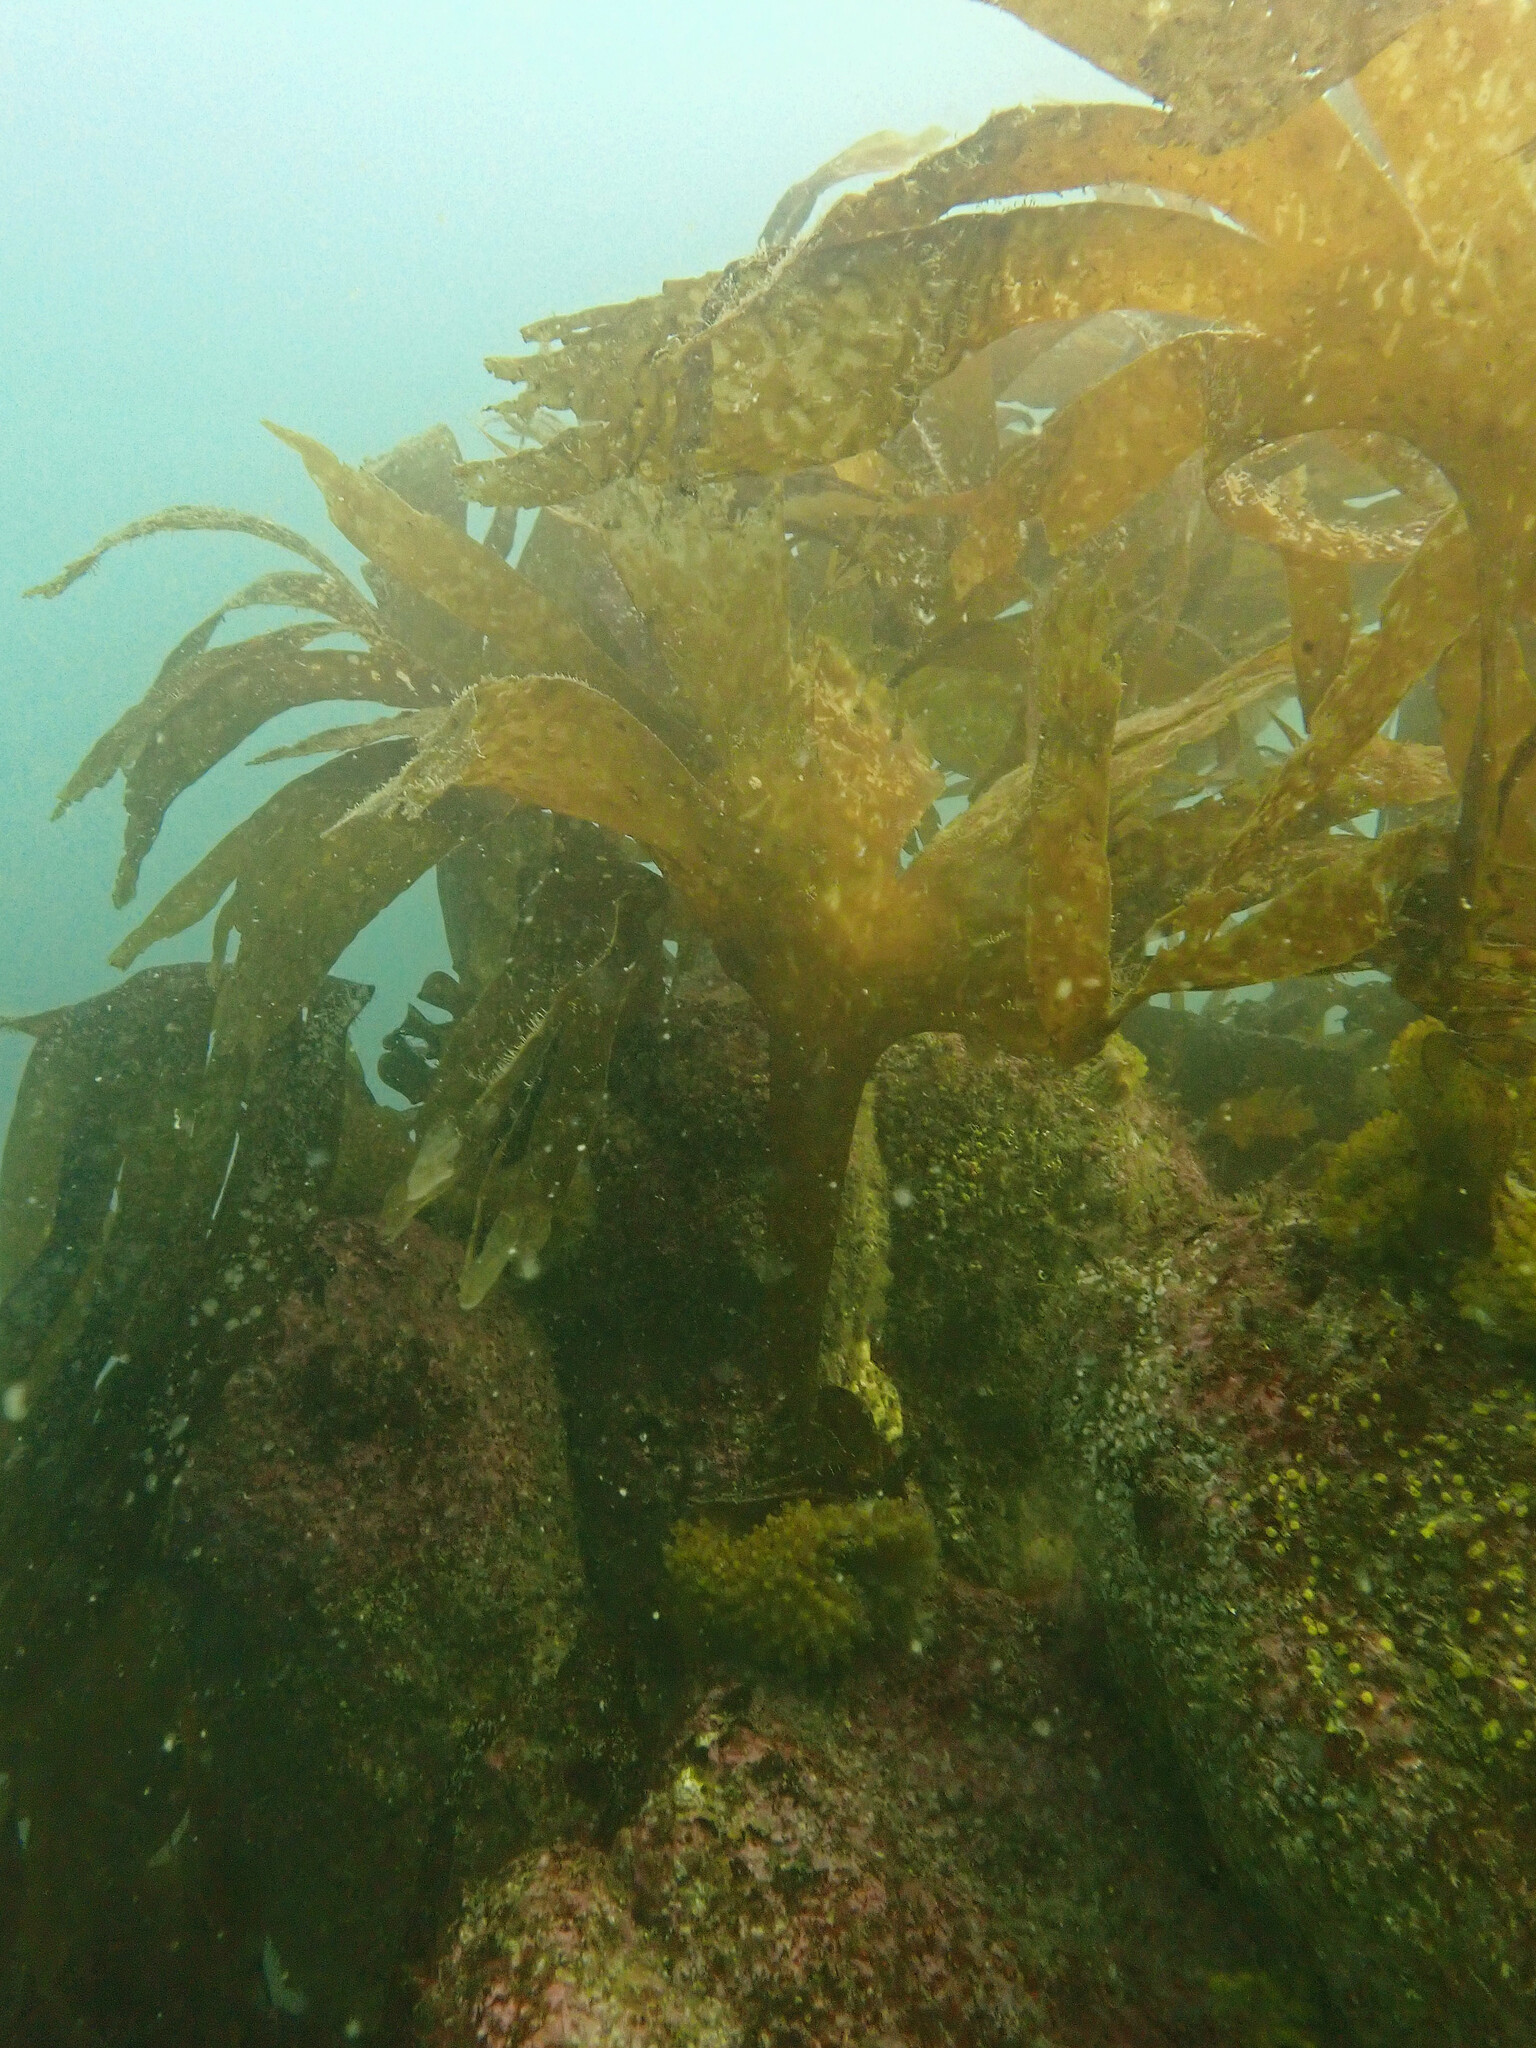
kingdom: Chromista
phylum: Ochrophyta
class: Phaeophyceae
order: Tilopteridales
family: Phyllariaceae
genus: Saccorhiza
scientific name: Saccorhiza polyschides
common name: Furbelows
